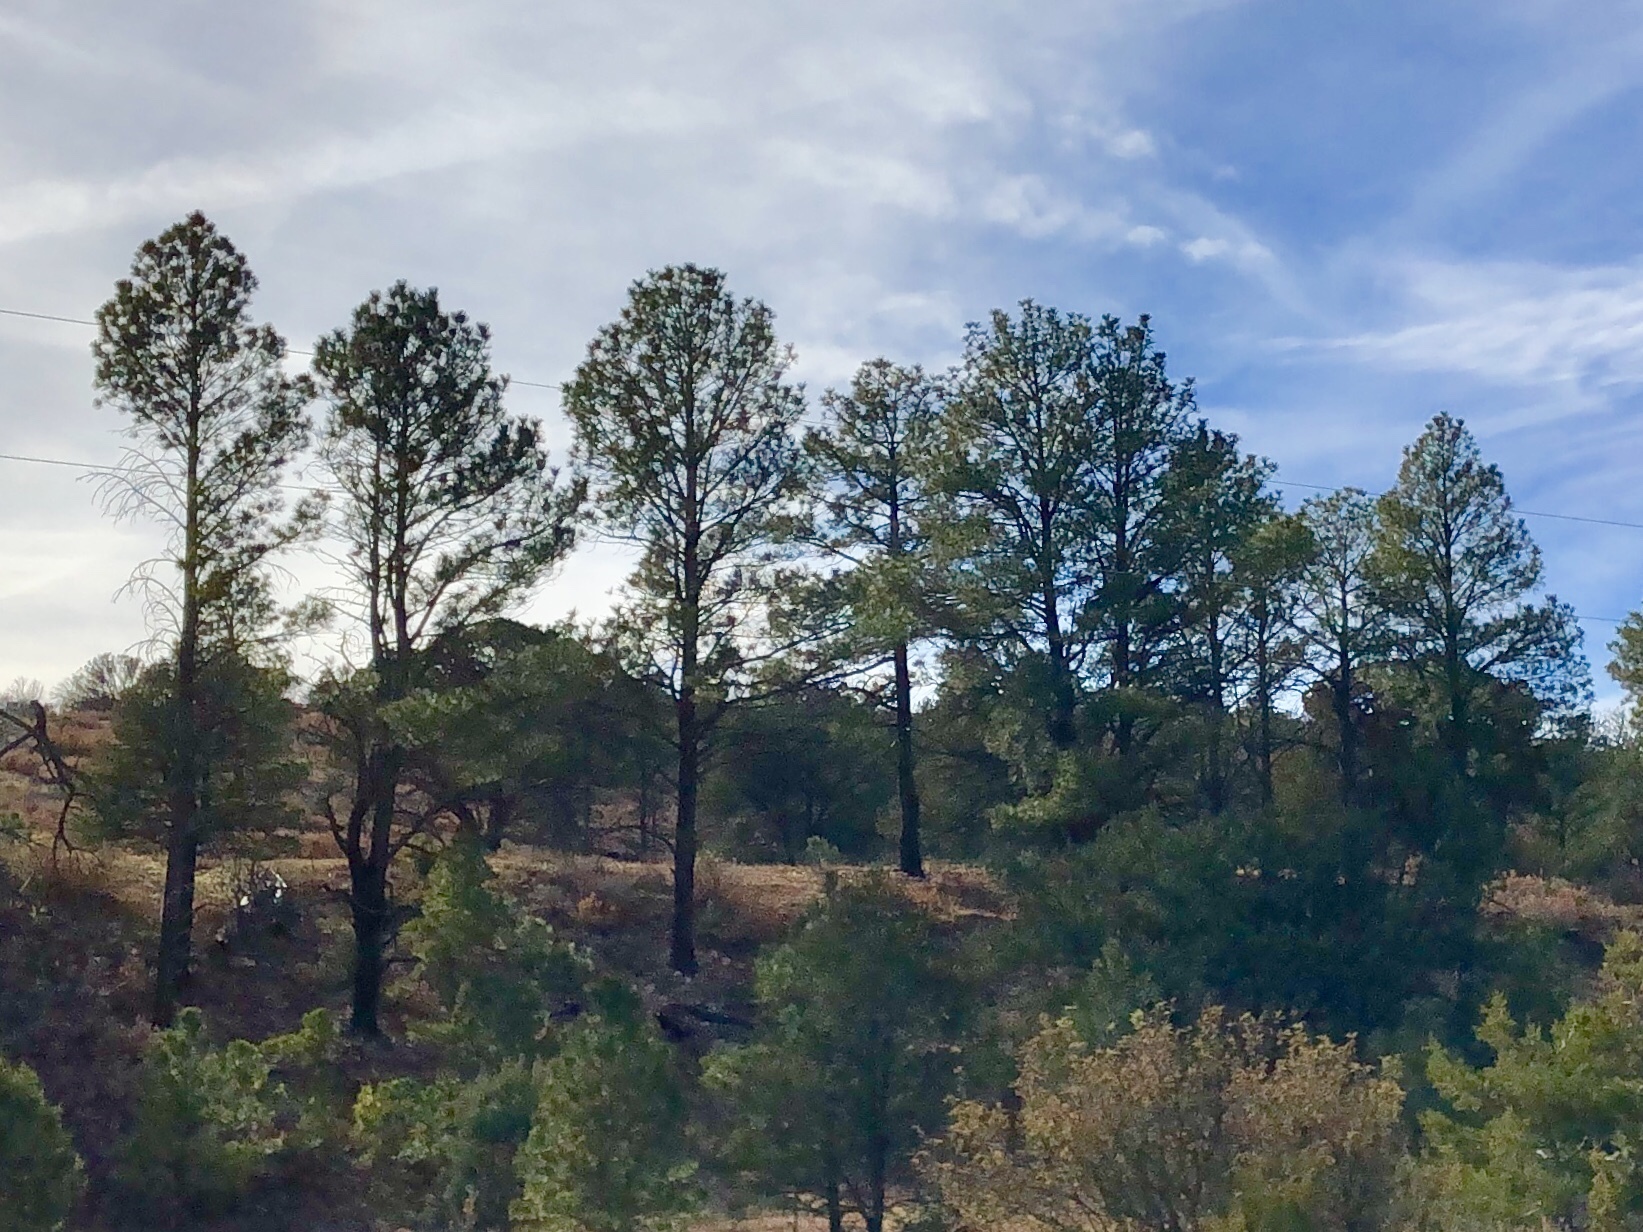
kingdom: Plantae
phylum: Tracheophyta
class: Pinopsida
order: Pinales
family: Pinaceae
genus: Pinus
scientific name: Pinus ponderosa
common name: Western yellow-pine
